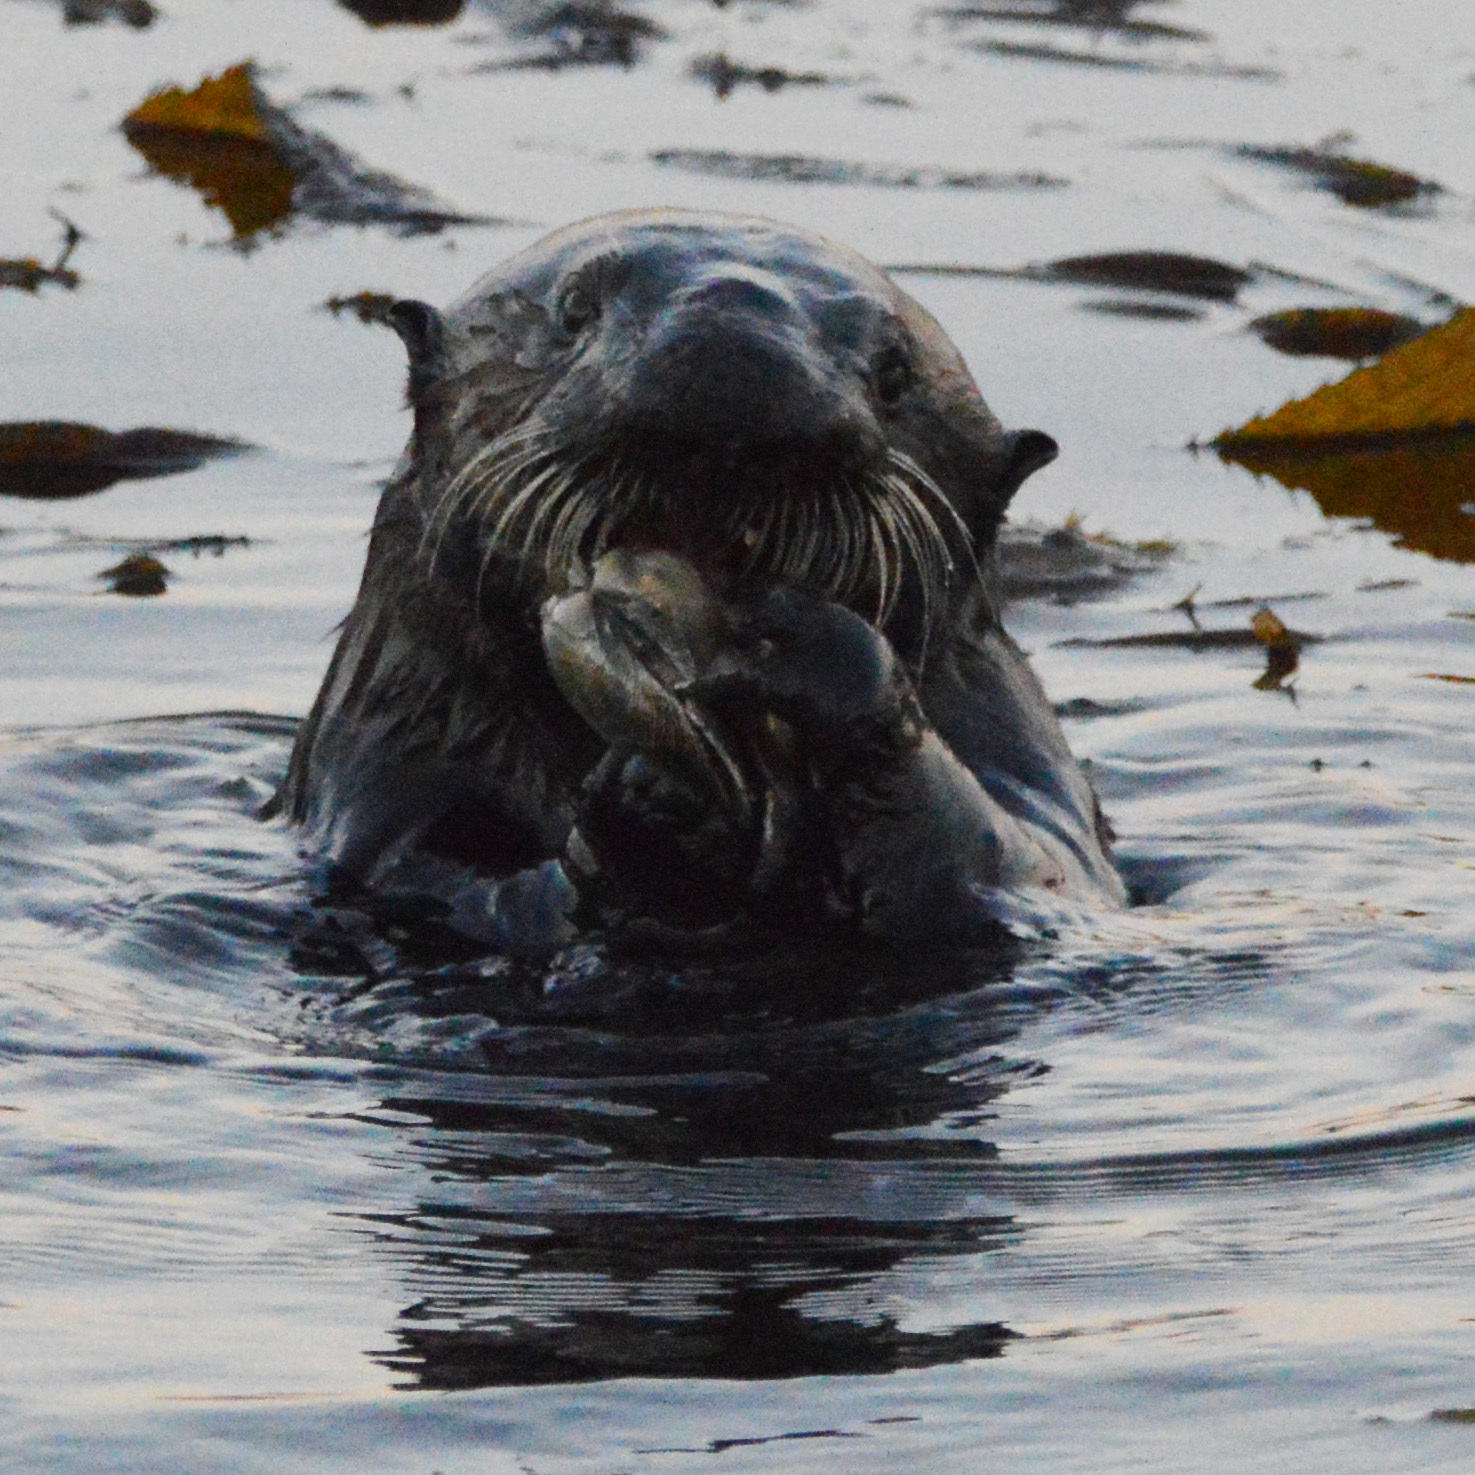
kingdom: Animalia
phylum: Chordata
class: Mammalia
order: Carnivora
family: Mustelidae
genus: Enhydra
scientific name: Enhydra lutris
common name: Sea otter
